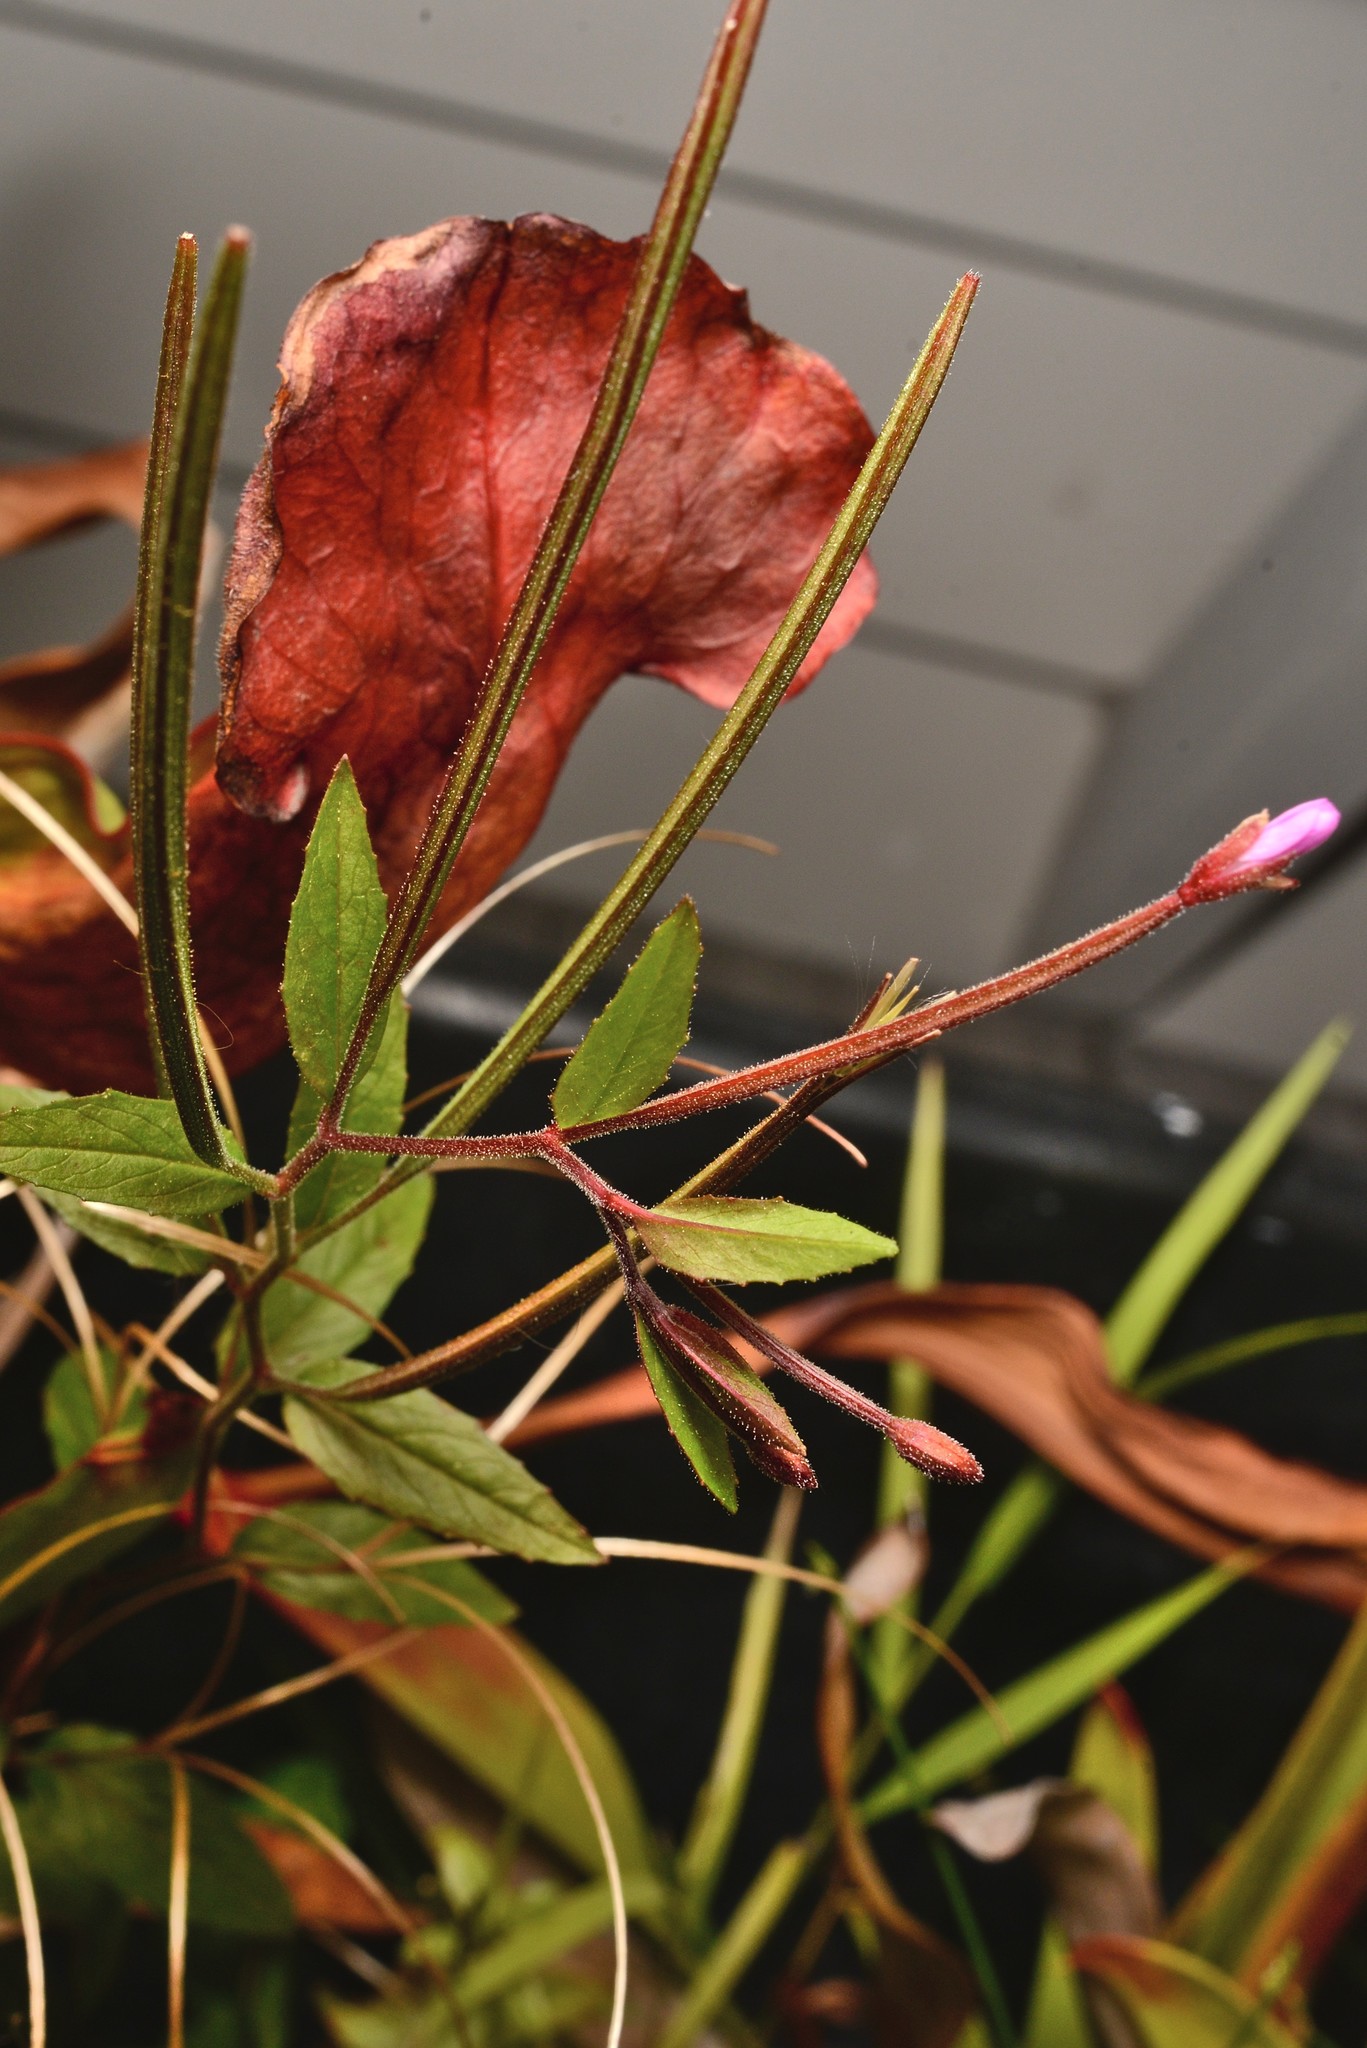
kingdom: Plantae
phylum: Tracheophyta
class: Magnoliopsida
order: Myrtales
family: Onagraceae
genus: Epilobium
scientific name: Epilobium ciliatum
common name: American willowherb
